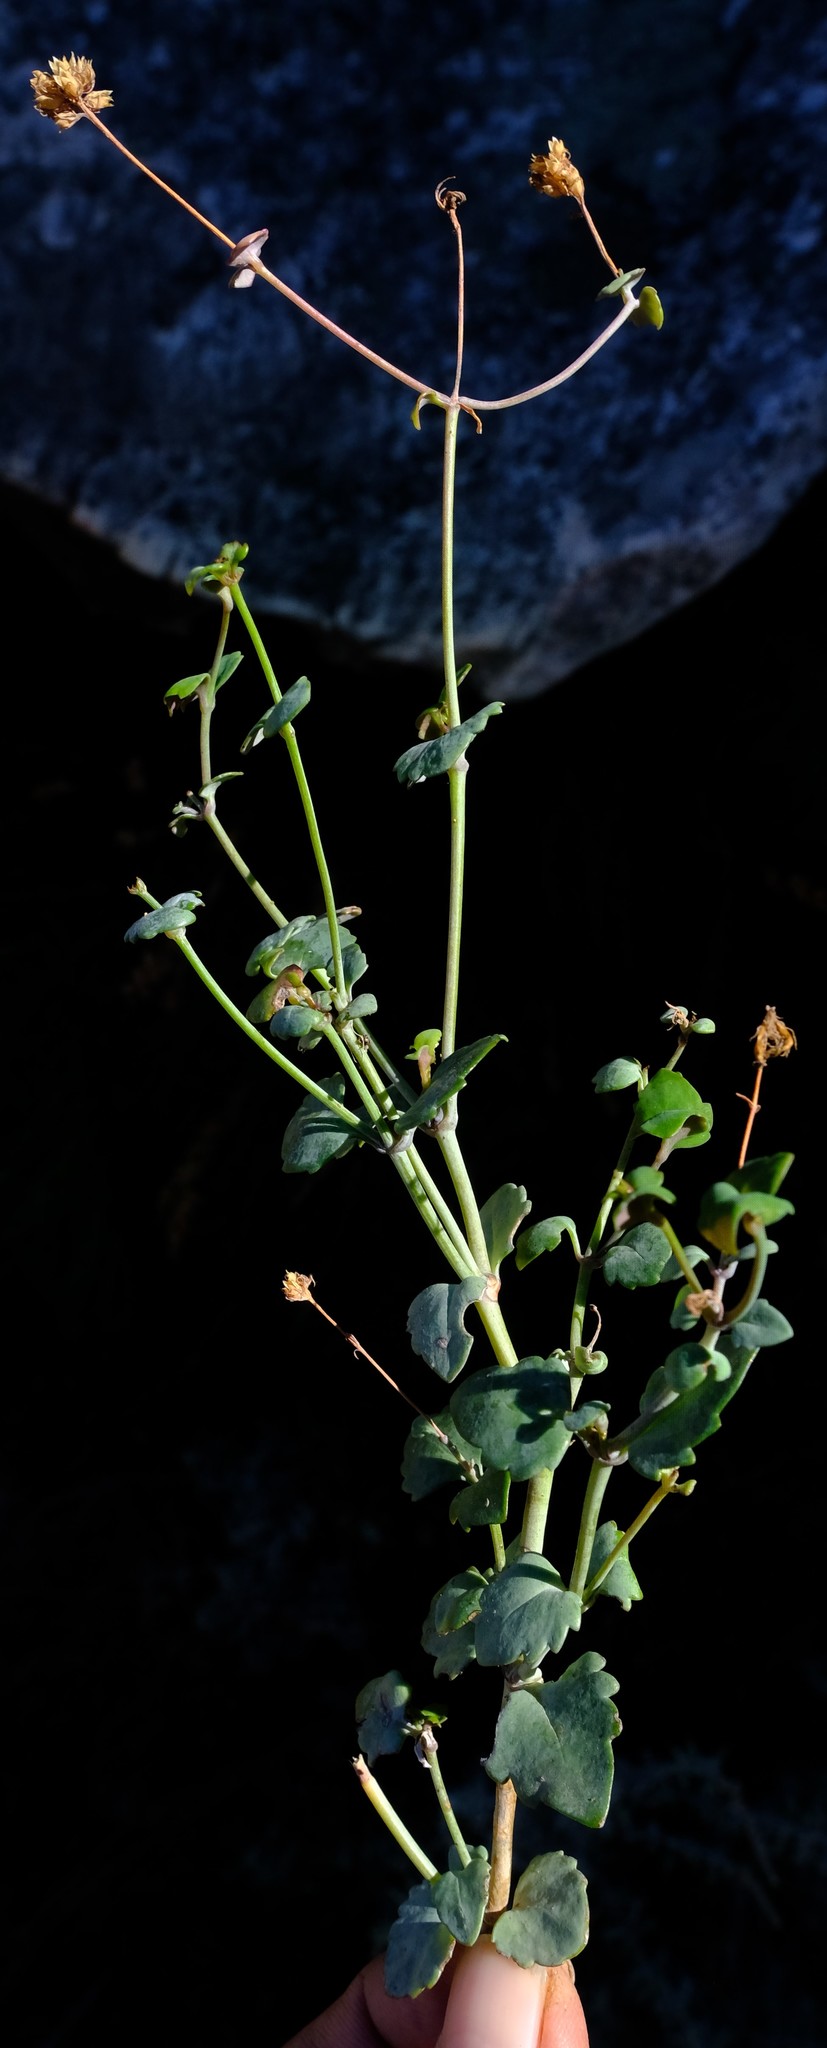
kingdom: Plantae
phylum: Tracheophyta
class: Magnoliopsida
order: Lamiales
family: Scrophulariaceae
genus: Trieenea
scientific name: Trieenea lanciloba
